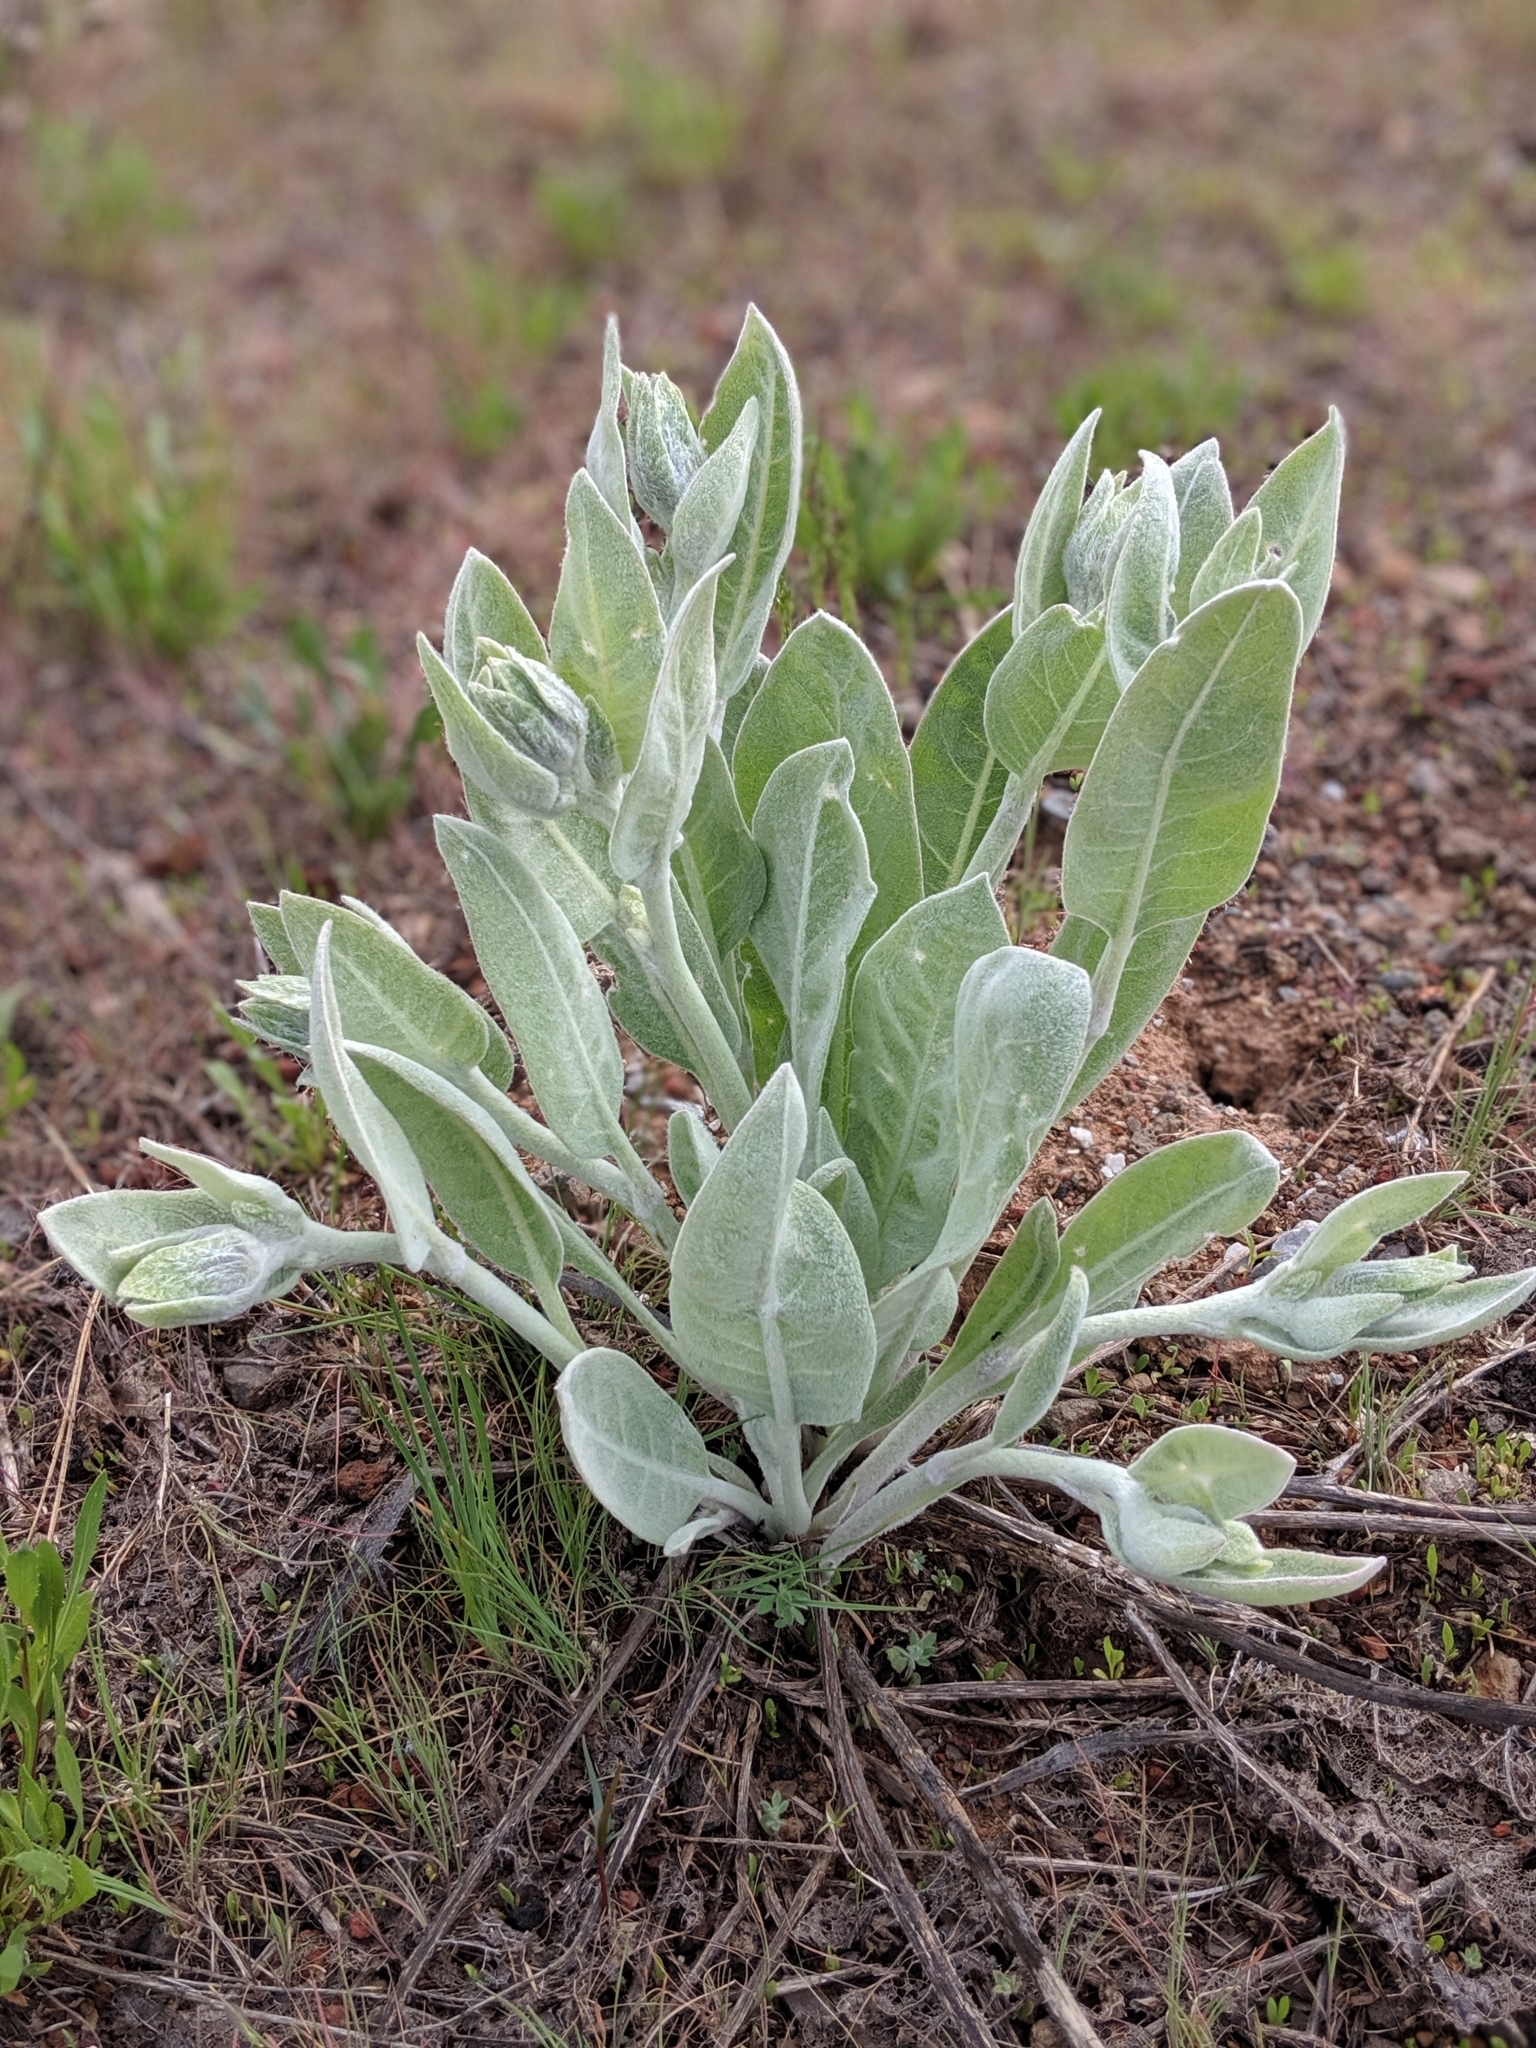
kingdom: Plantae
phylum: Tracheophyta
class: Magnoliopsida
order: Asterales
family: Asteraceae
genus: Wyethia
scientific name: Wyethia mollis
